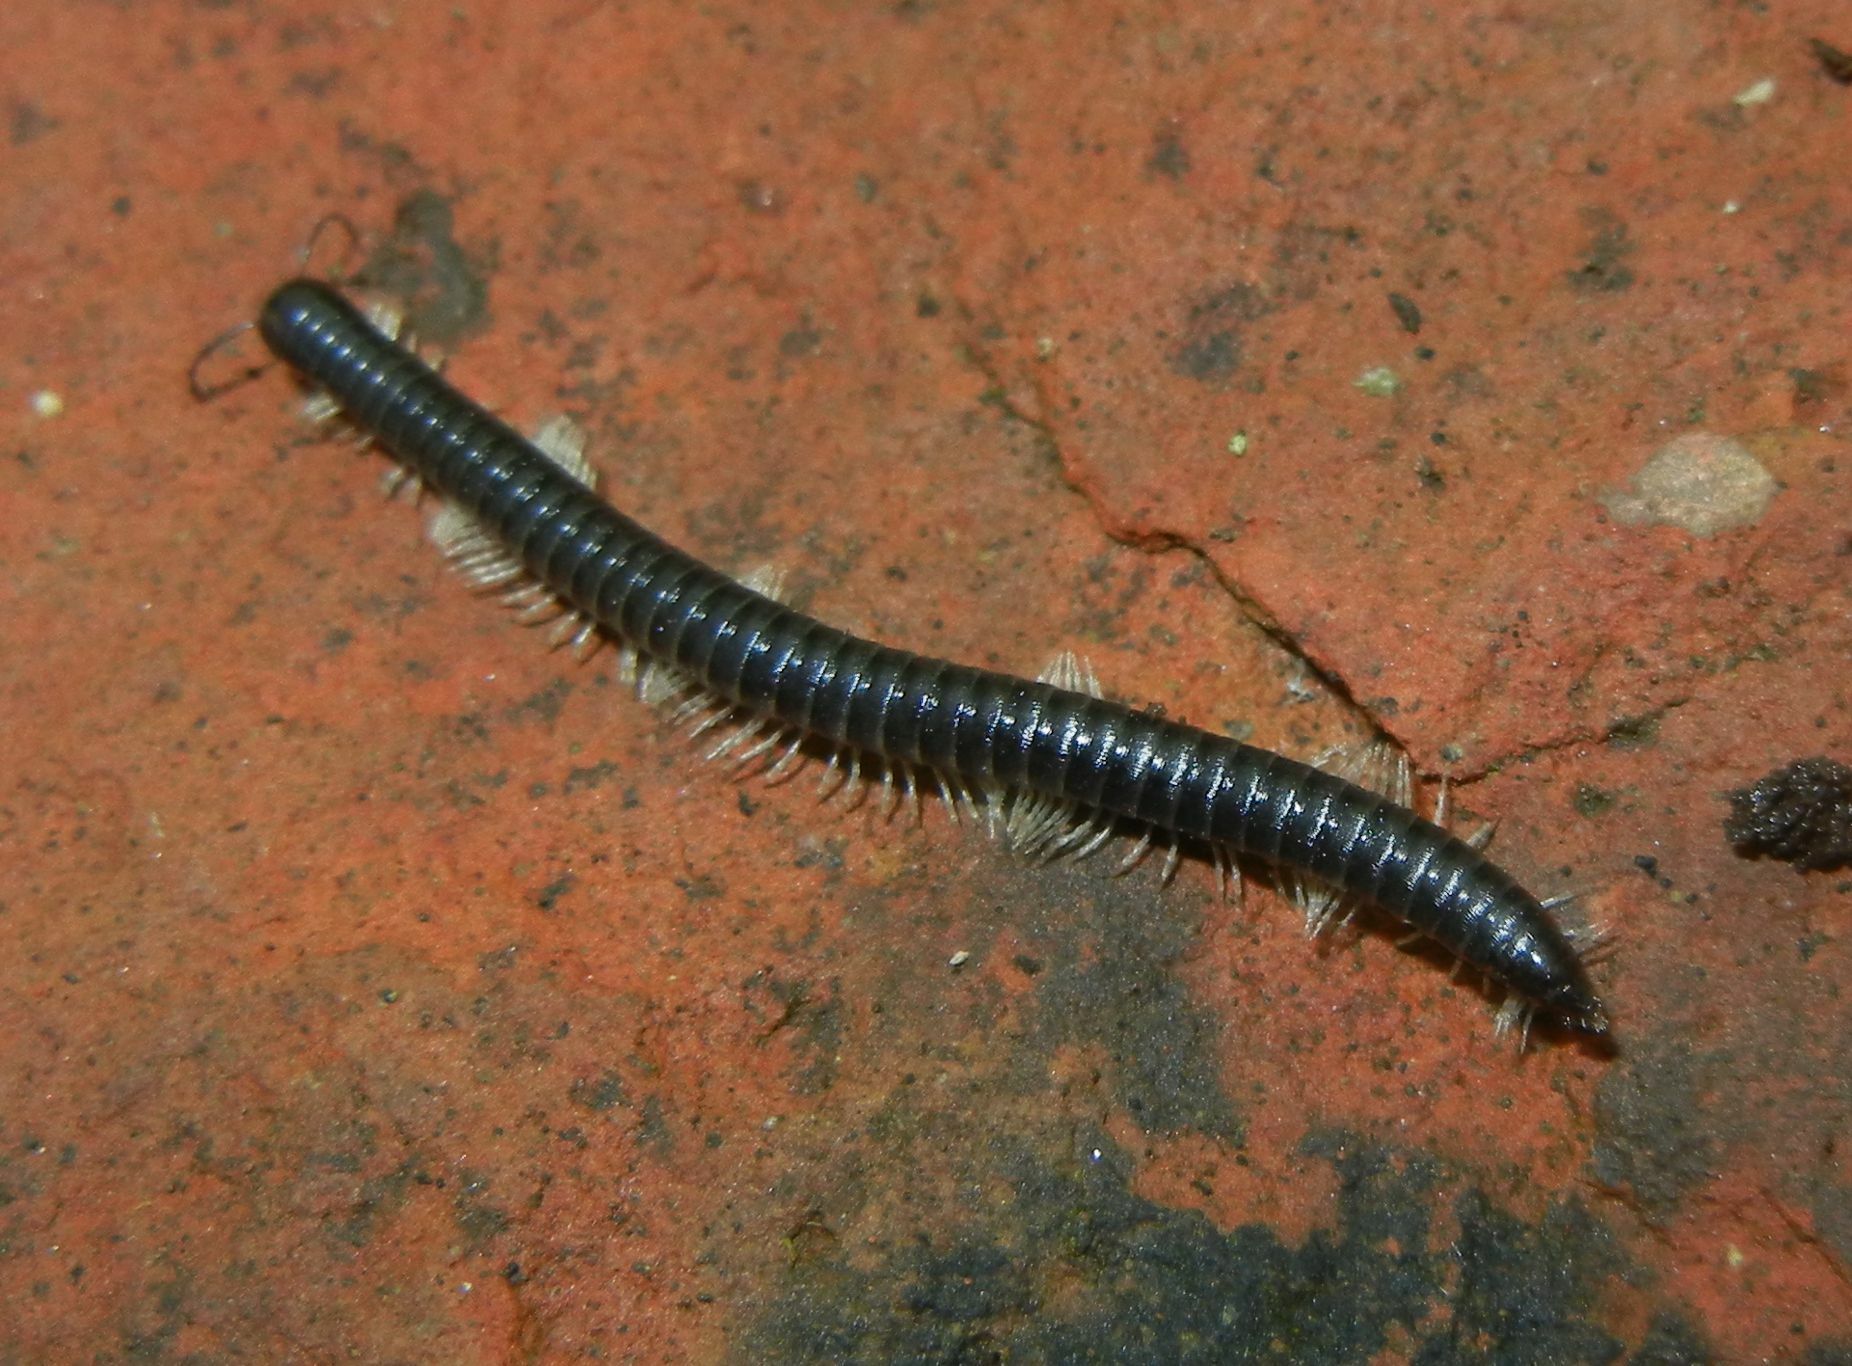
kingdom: Animalia
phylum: Arthropoda
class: Diplopoda
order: Julida
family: Julidae
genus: Tachypodoiulus
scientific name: Tachypodoiulus niger
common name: White-legged snake millipede
